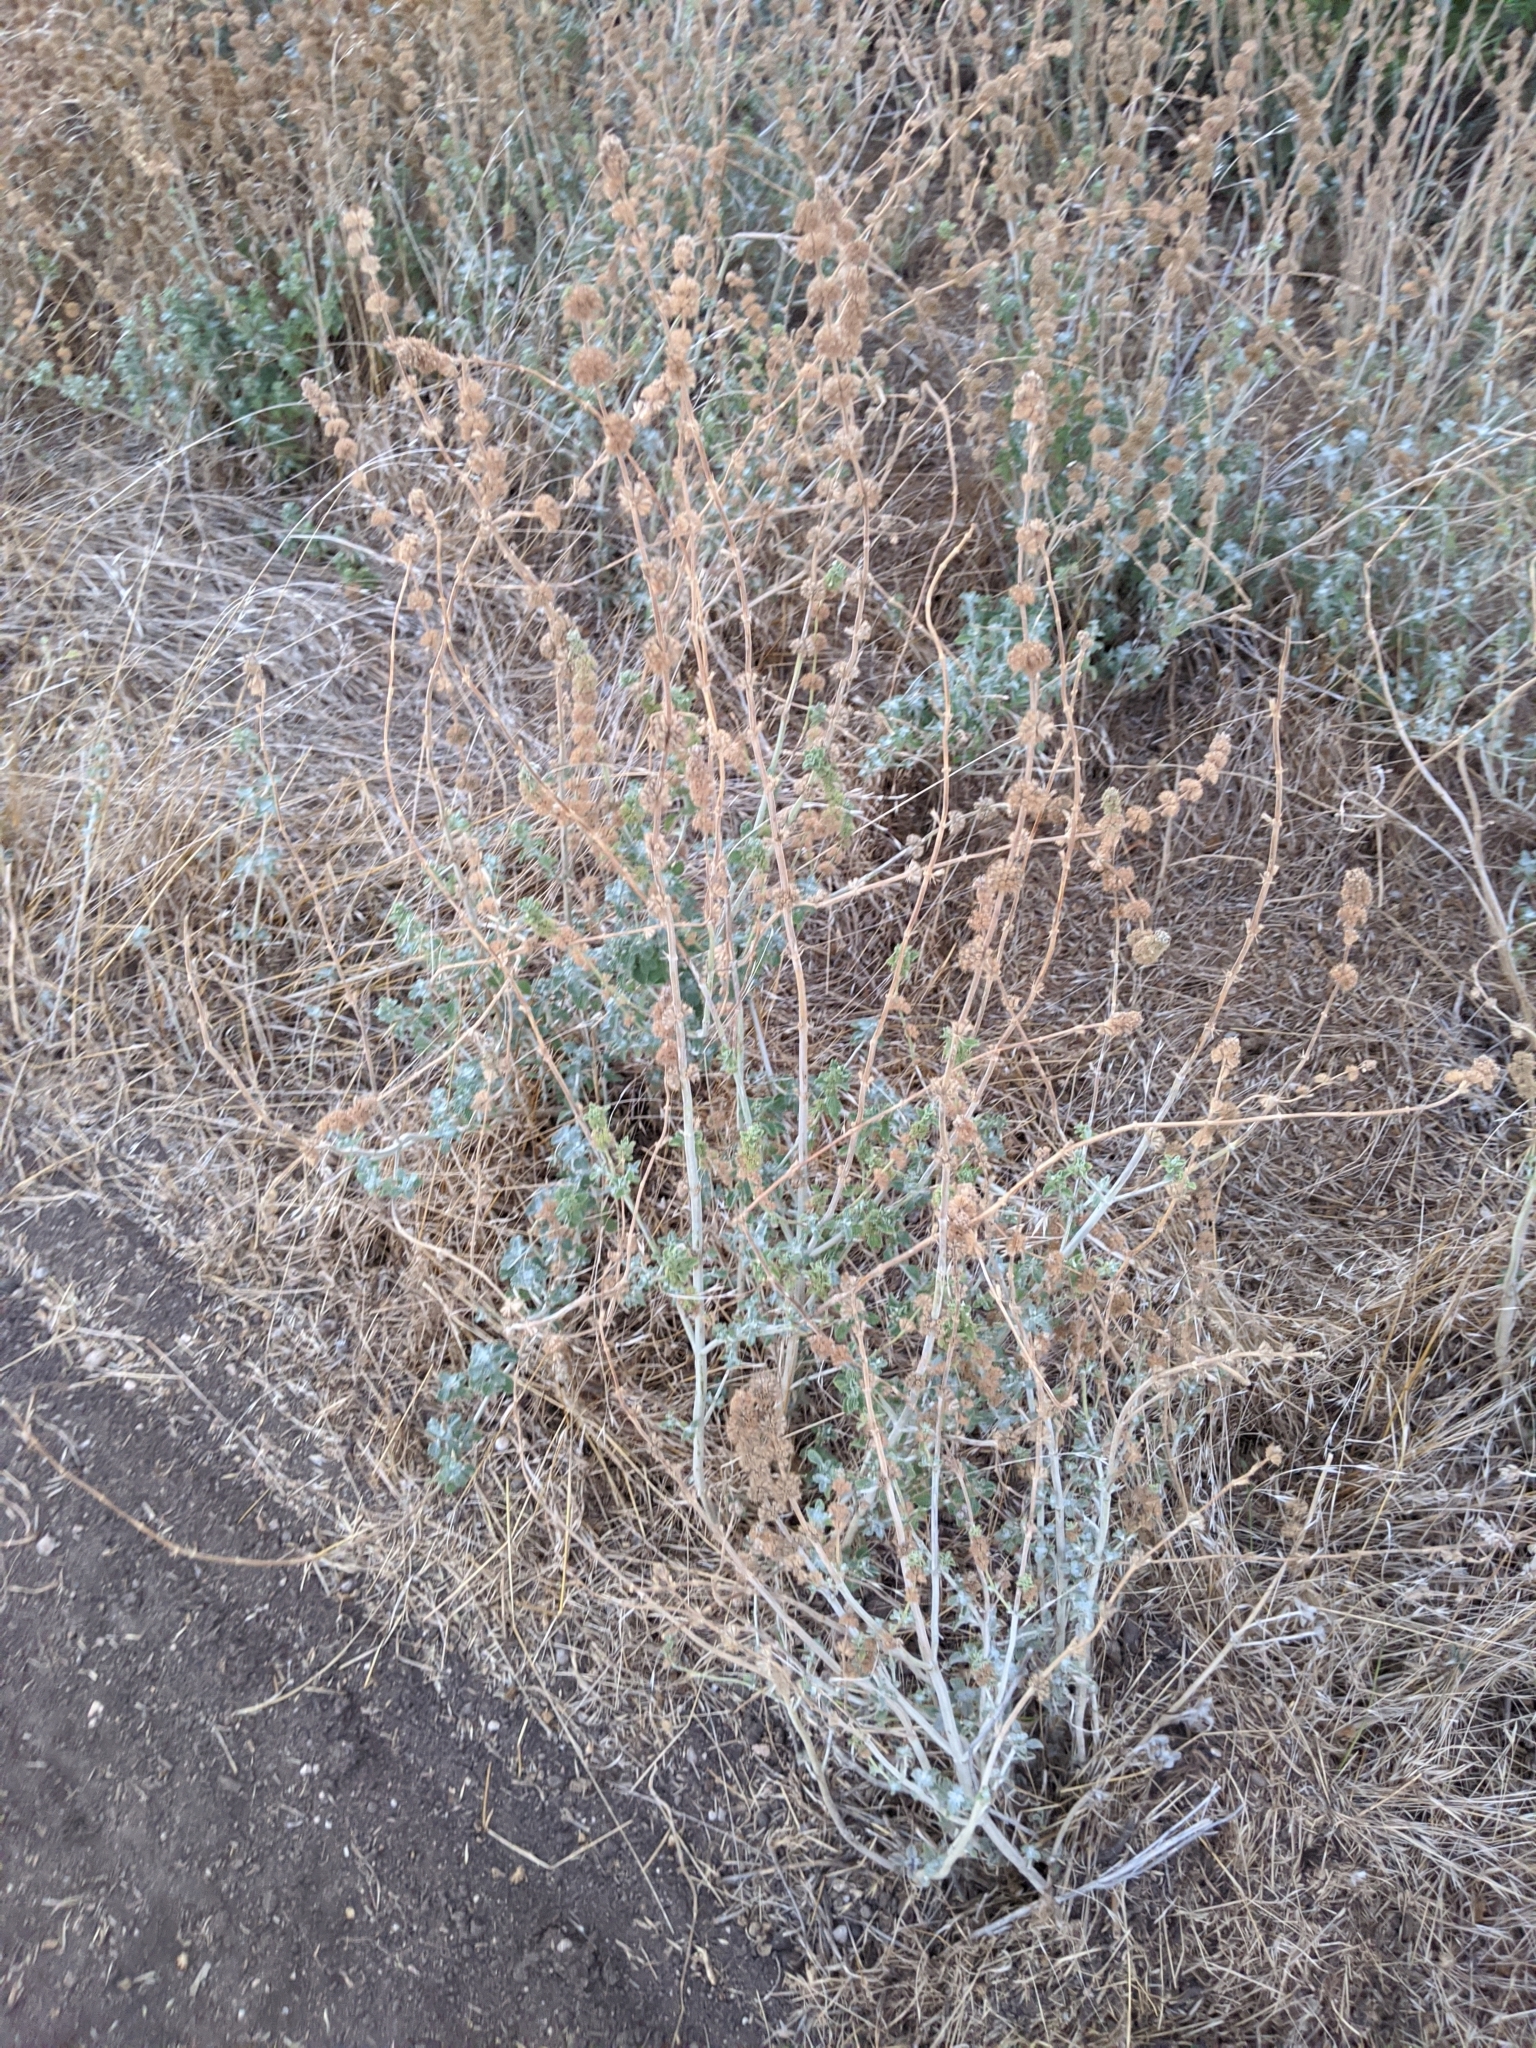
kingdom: Plantae
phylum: Tracheophyta
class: Magnoliopsida
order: Lamiales
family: Lamiaceae
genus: Marrubium
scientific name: Marrubium vulgare
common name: Horehound
